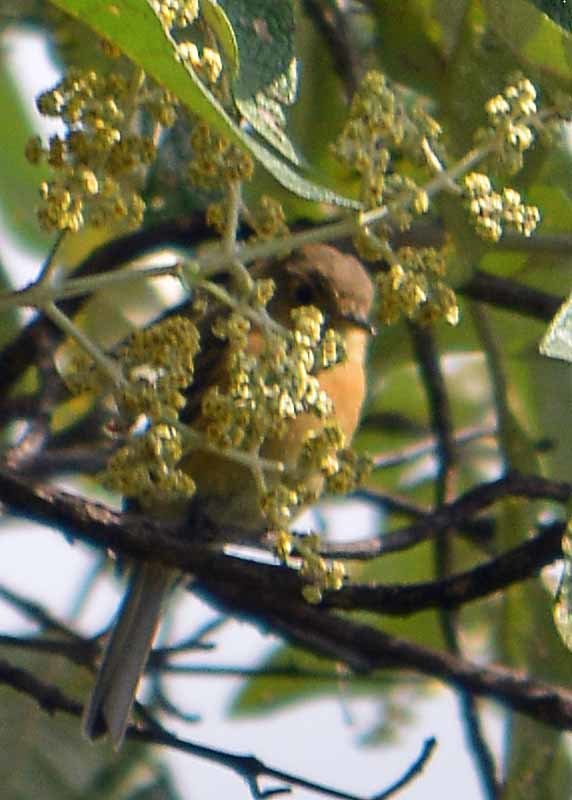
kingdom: Animalia
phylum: Chordata
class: Aves
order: Passeriformes
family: Tyrannidae
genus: Empidonax
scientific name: Empidonax fulvifrons
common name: Buff-breasted flycatcher
